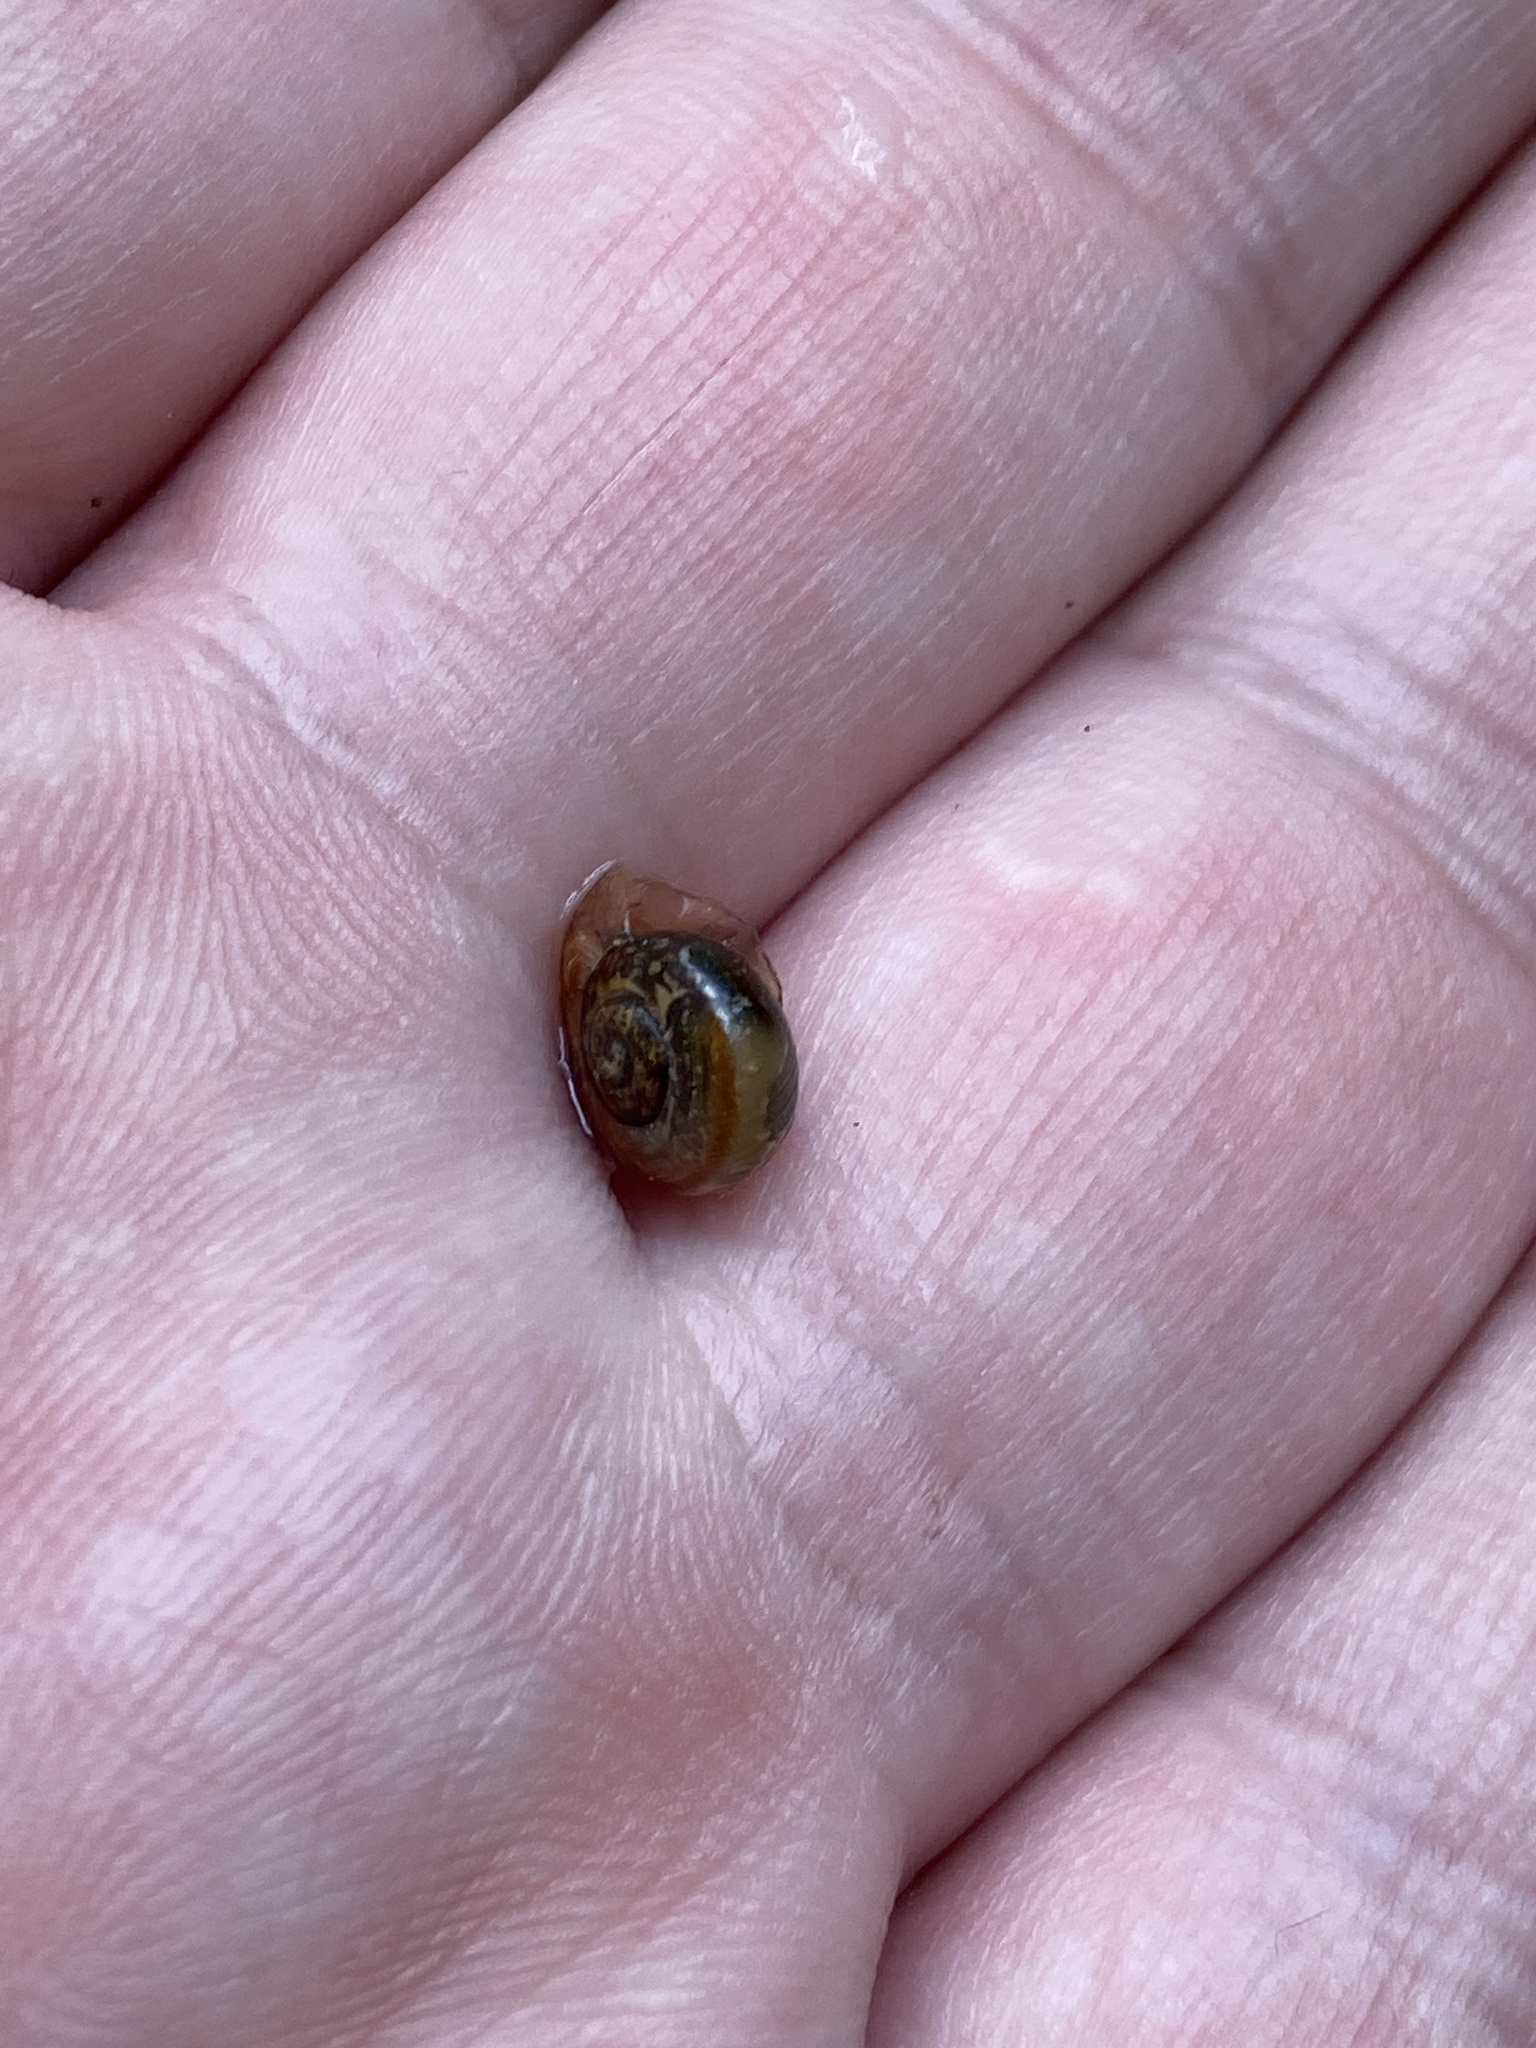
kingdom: Animalia
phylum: Mollusca
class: Gastropoda
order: Stylommatophora
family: Helicidae
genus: Arianta
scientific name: Arianta arbustorum
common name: Copse snail
